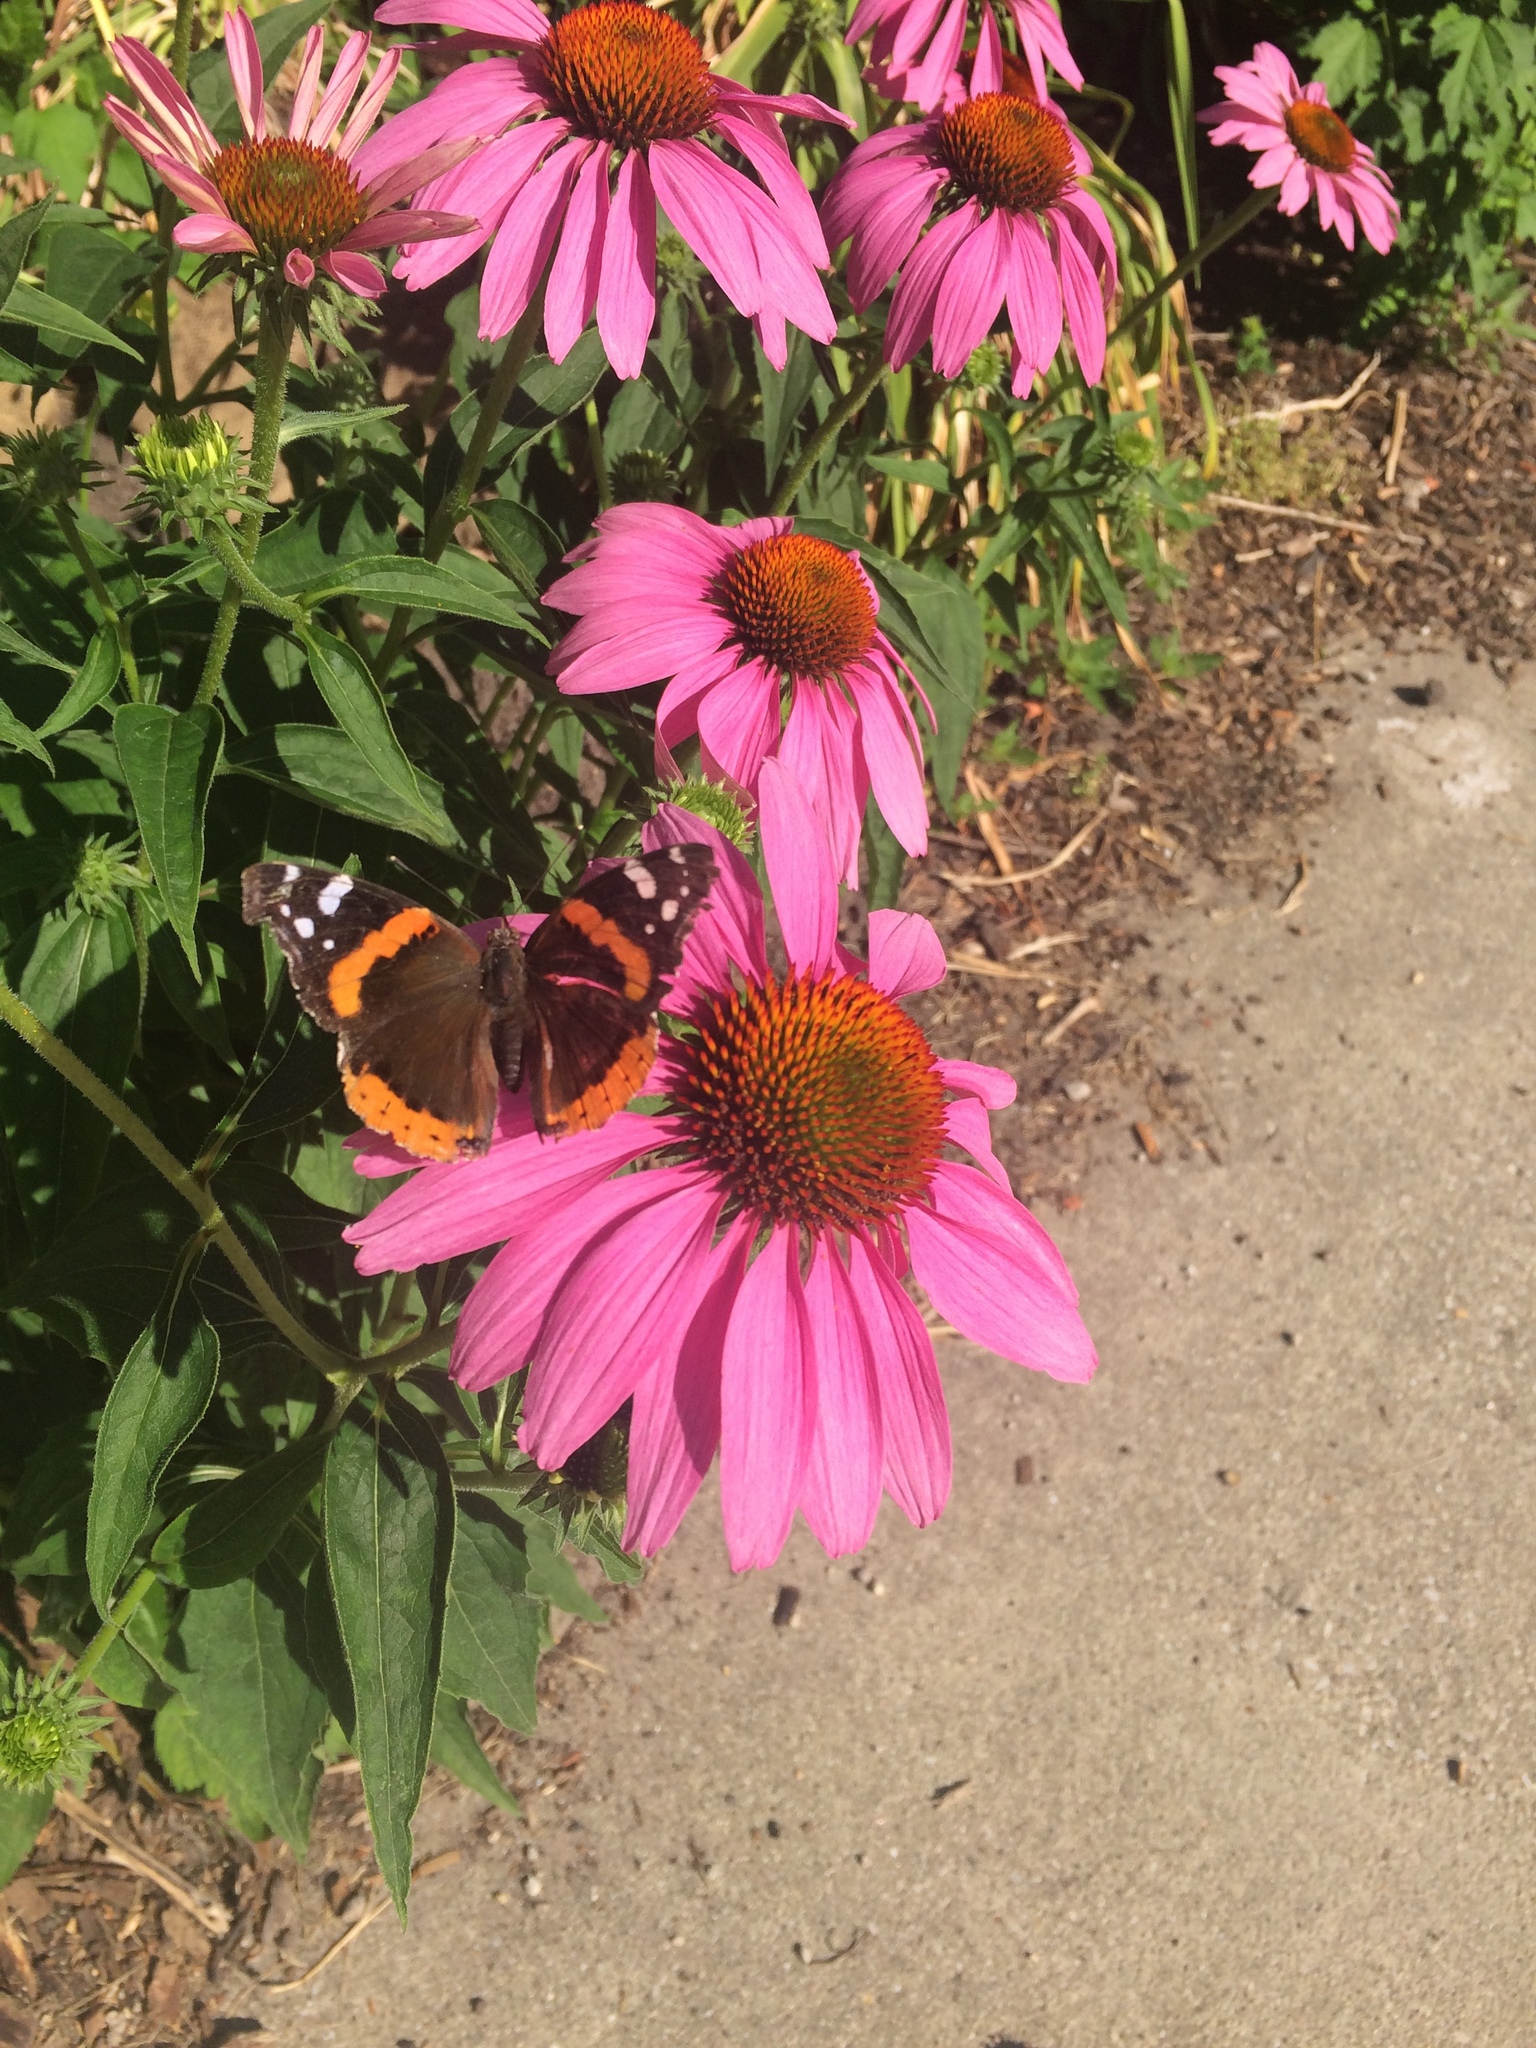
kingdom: Animalia
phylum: Arthropoda
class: Insecta
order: Lepidoptera
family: Nymphalidae
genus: Vanessa
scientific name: Vanessa atalanta
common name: Red admiral
